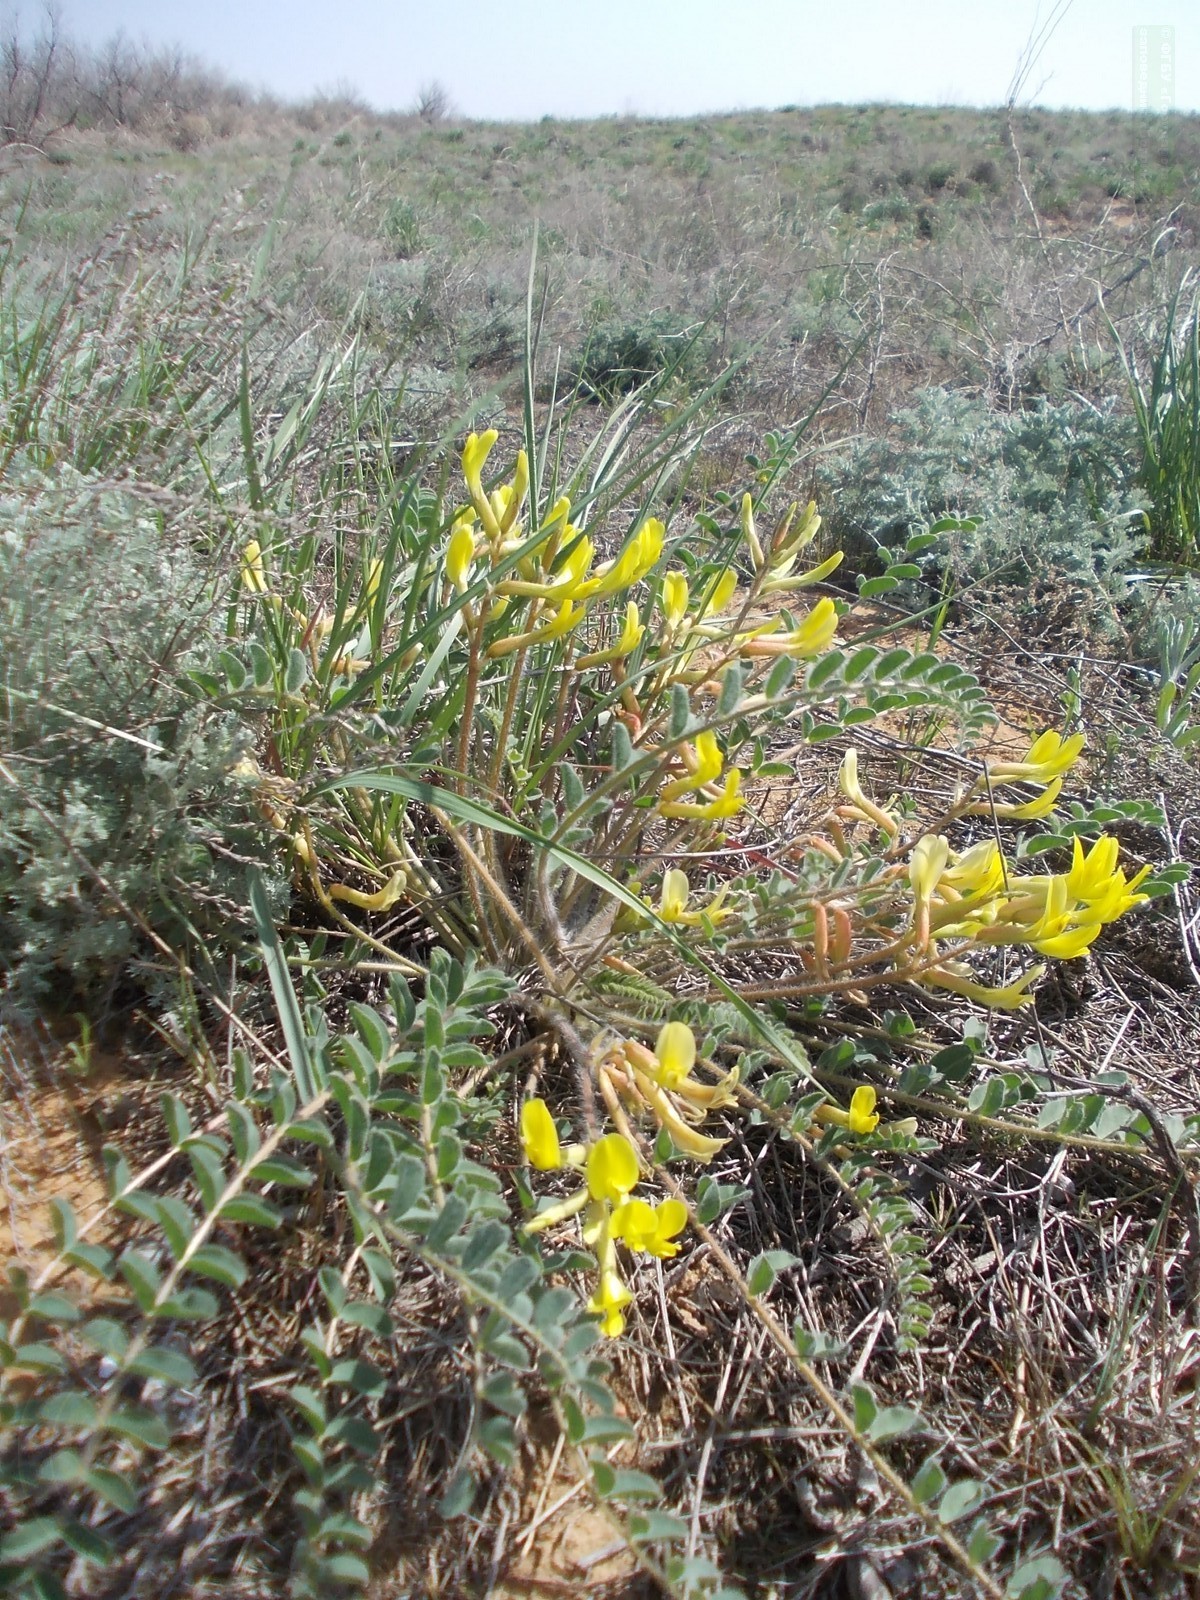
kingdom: Plantae
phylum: Tracheophyta
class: Magnoliopsida
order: Fabales
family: Fabaceae
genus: Astragalus
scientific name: Astragalus longipetalus
